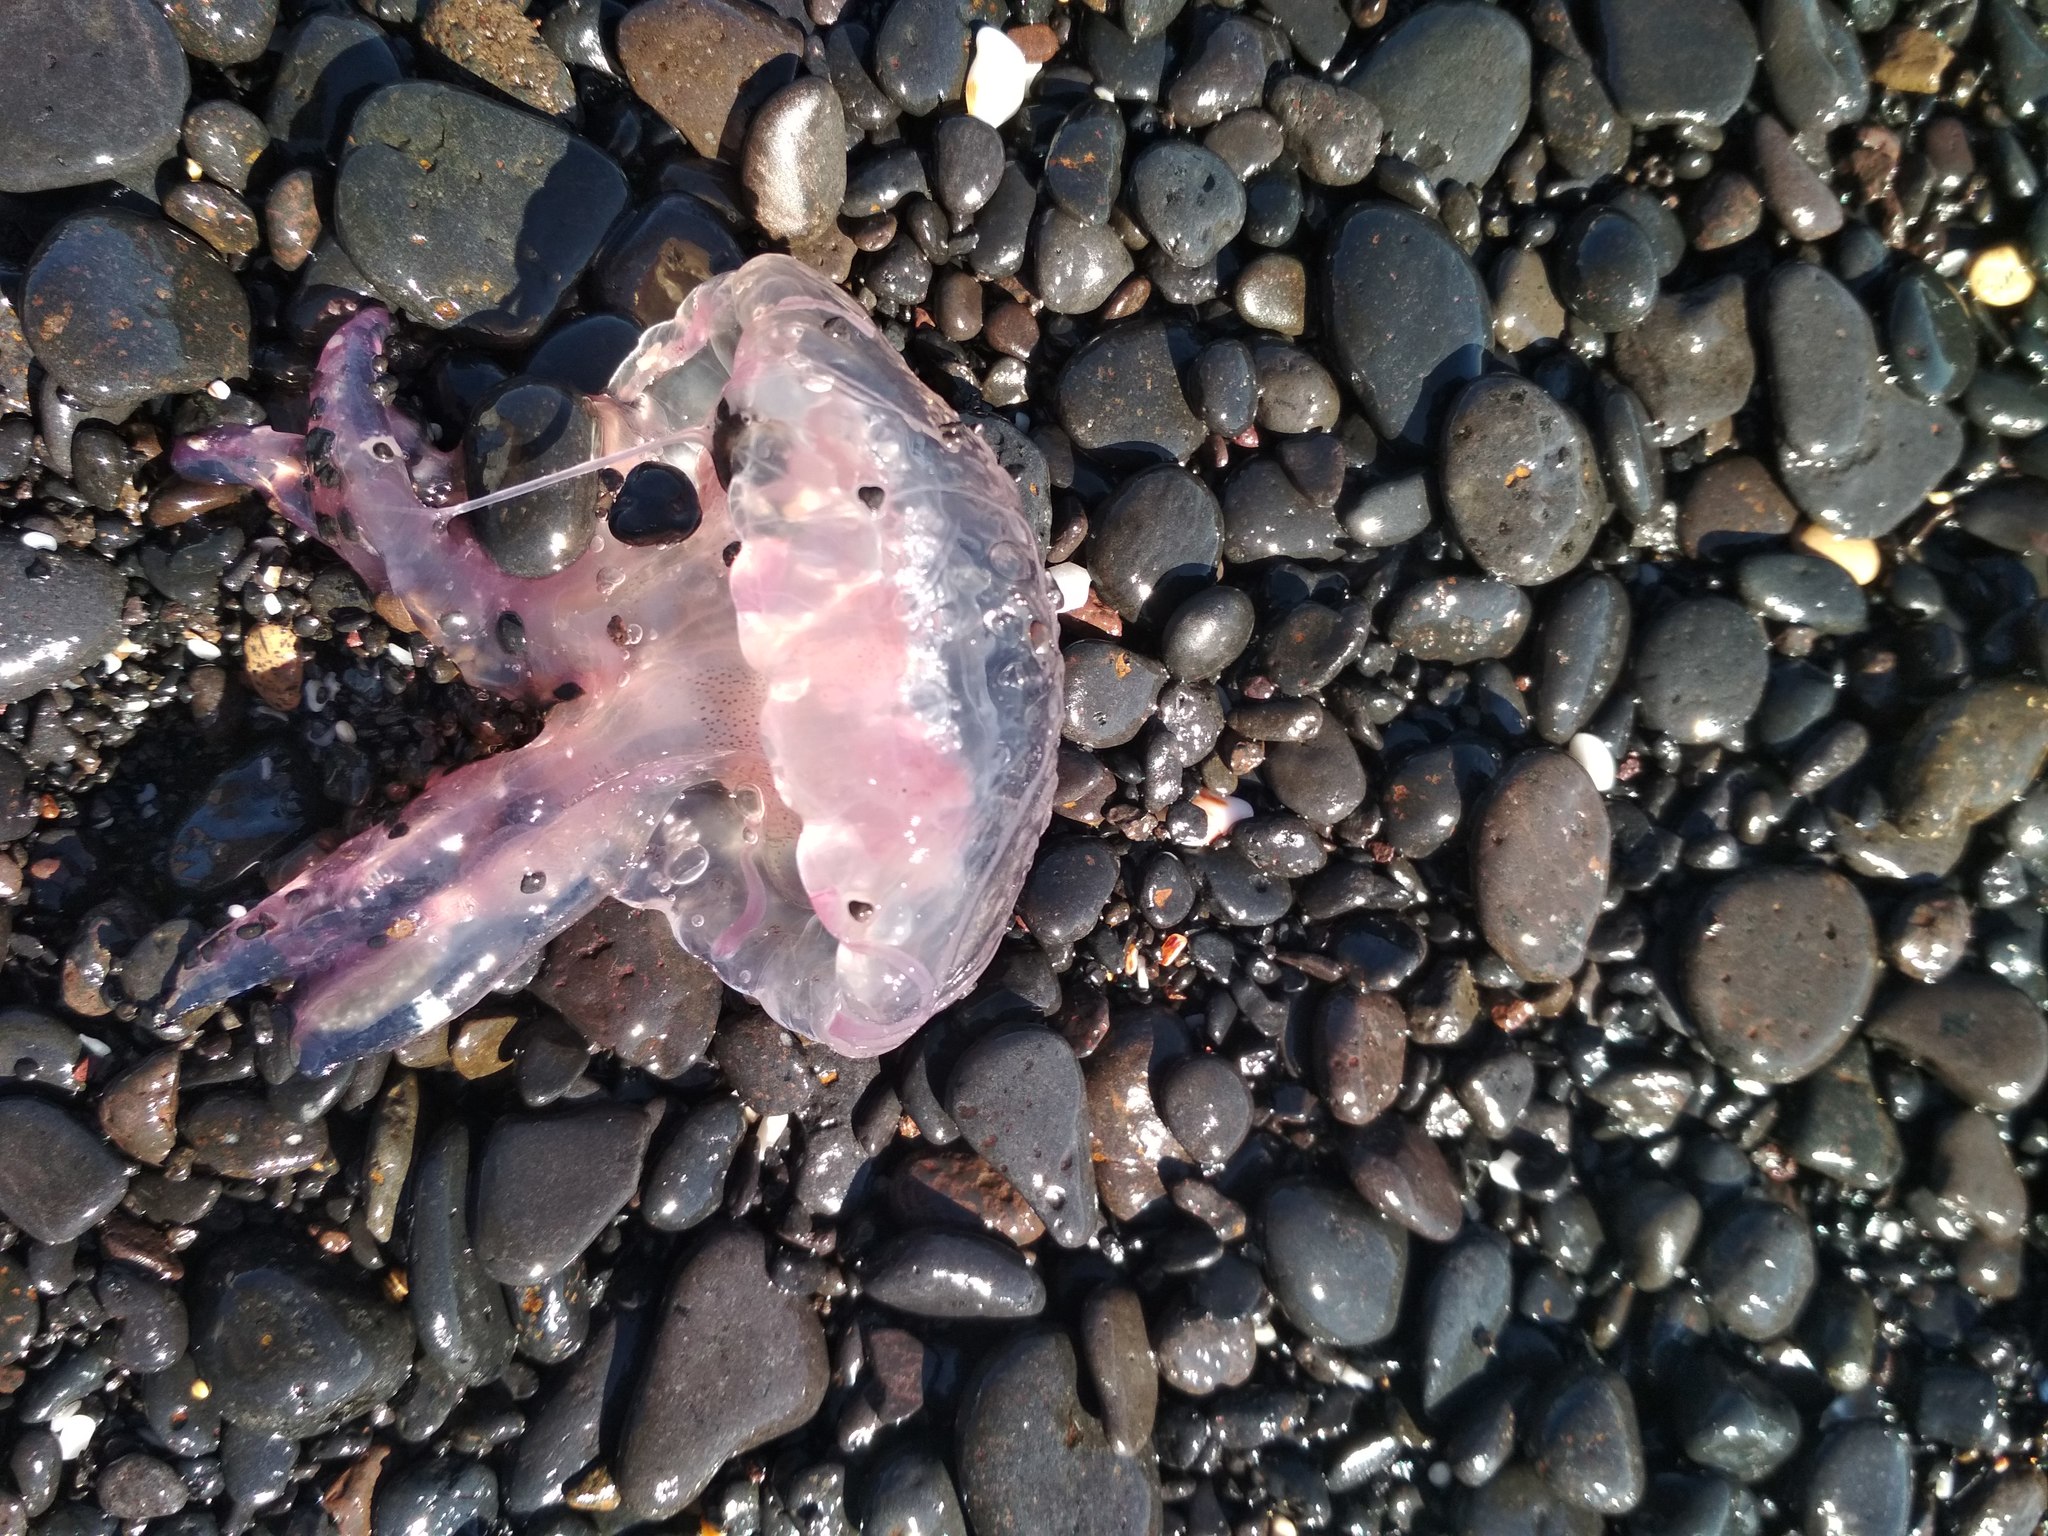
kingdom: Animalia
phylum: Cnidaria
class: Scyphozoa
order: Semaeostomeae
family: Pelagiidae
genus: Pelagia
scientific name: Pelagia noctiluca
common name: Mauve stinger
